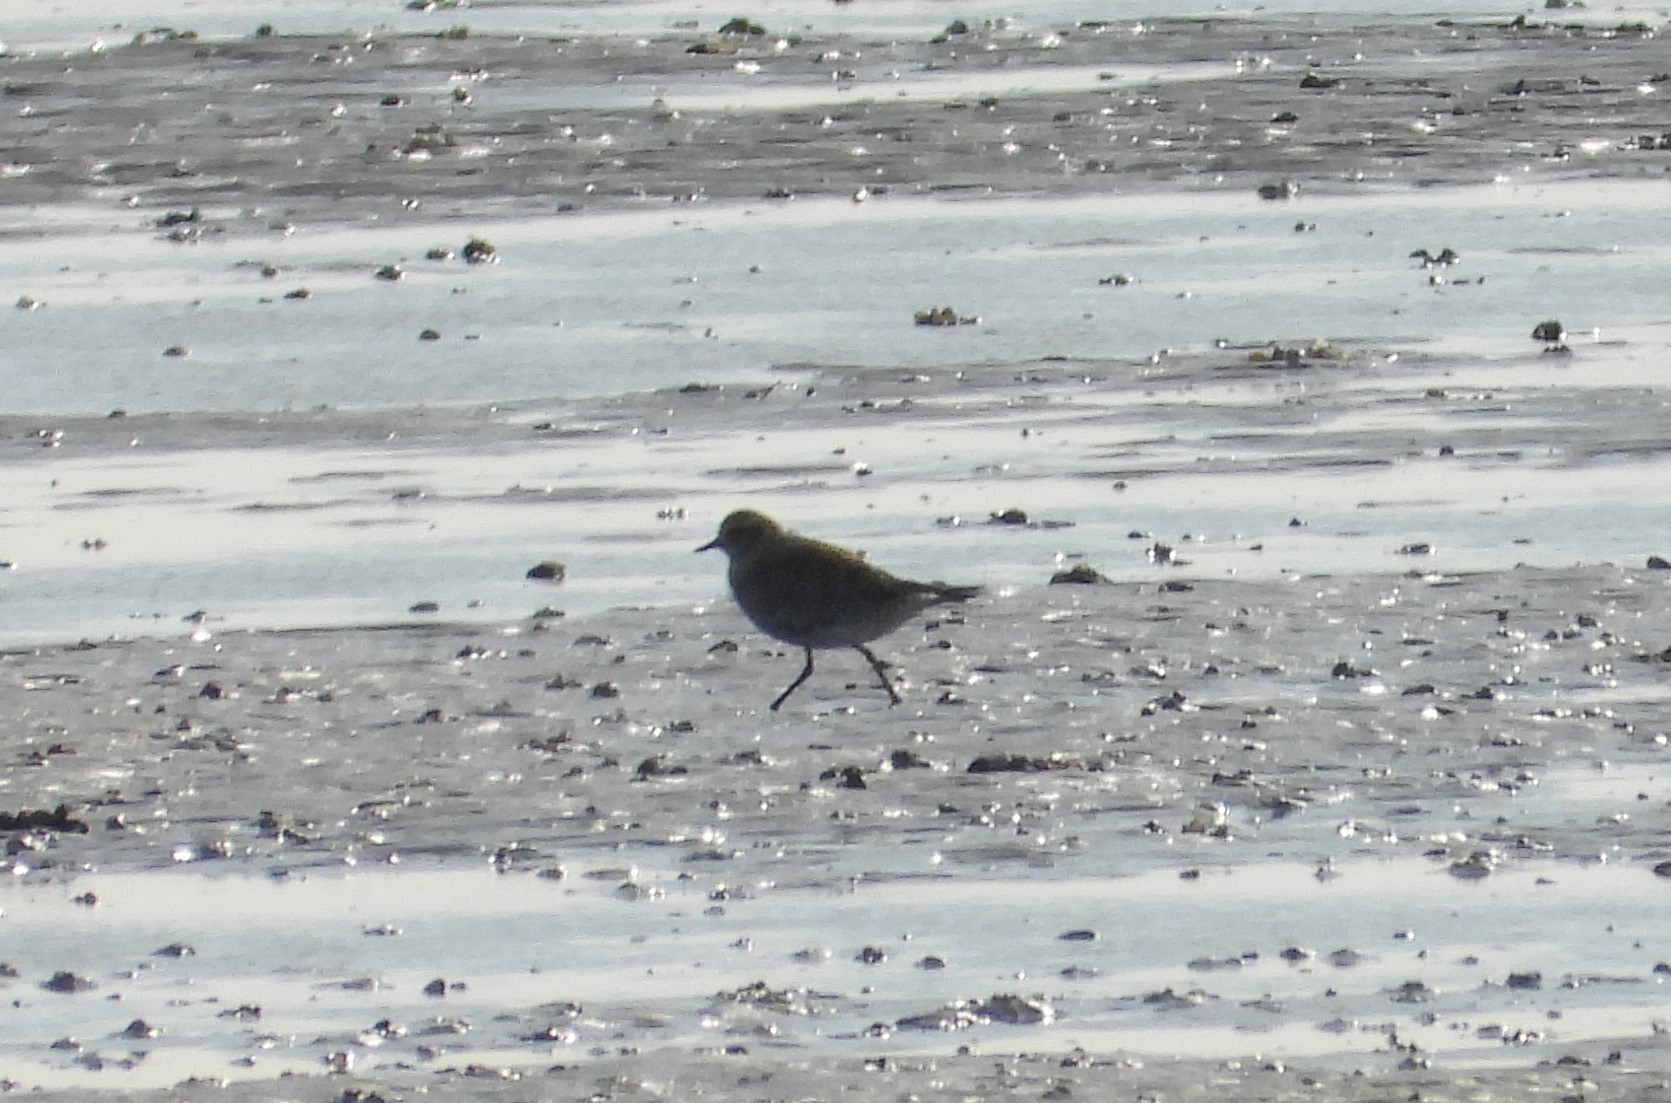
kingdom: Animalia
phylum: Chordata
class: Aves
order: Charadriiformes
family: Charadriidae
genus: Pluvialis
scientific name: Pluvialis apricaria
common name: European golden plover
